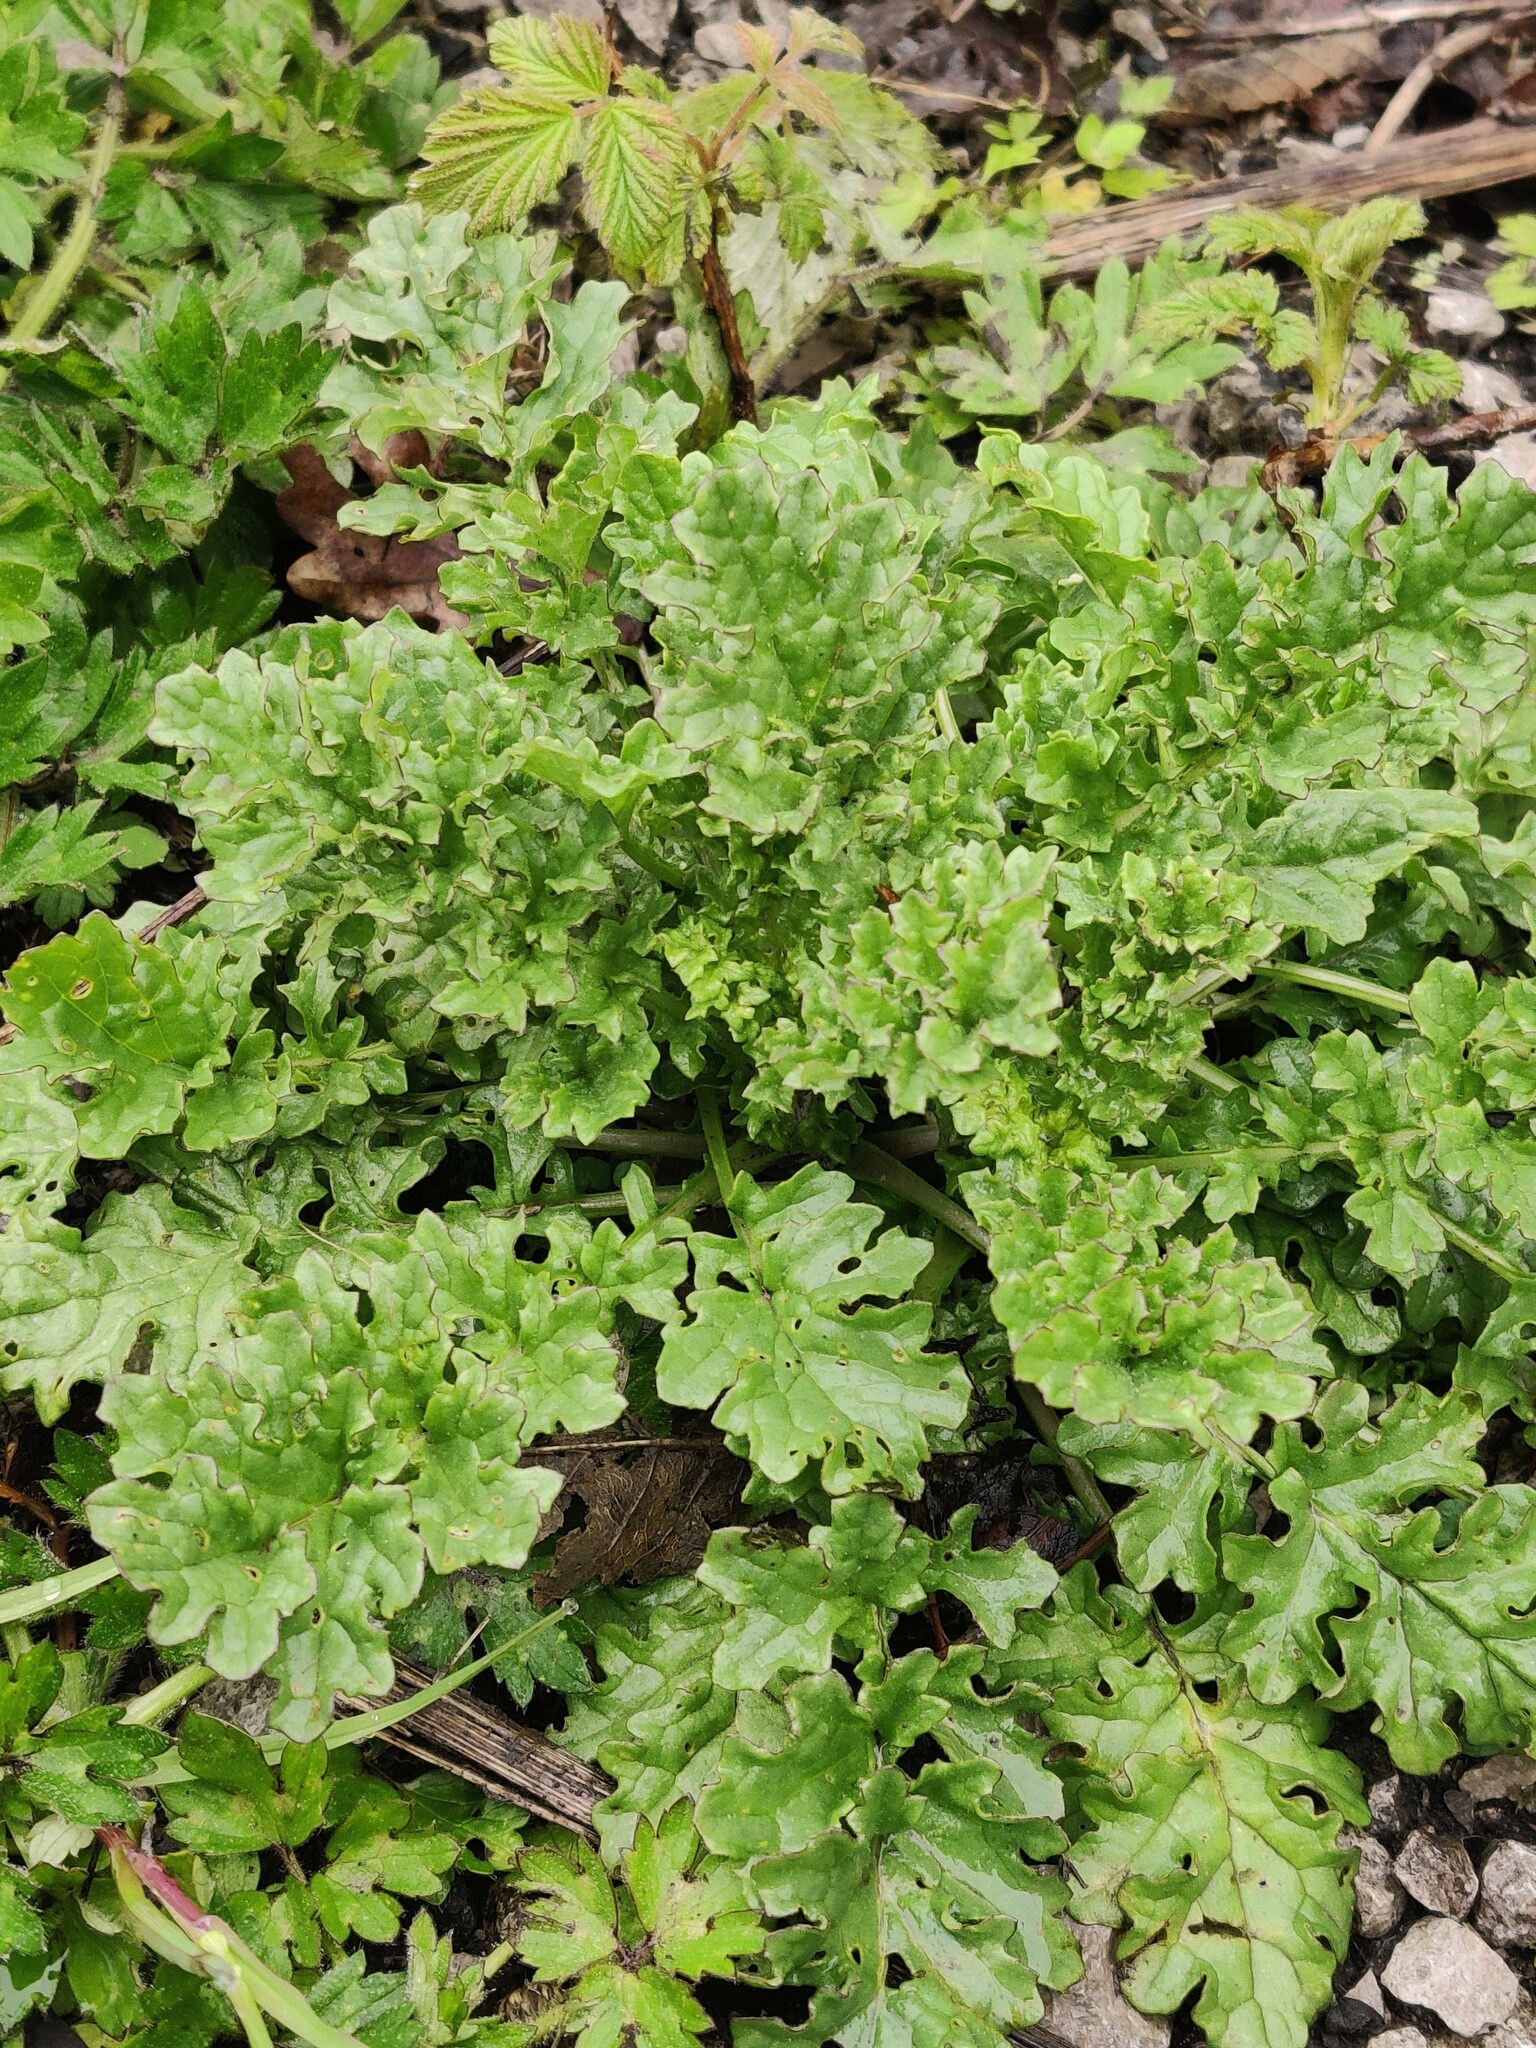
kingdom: Plantae
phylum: Tracheophyta
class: Magnoliopsida
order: Asterales
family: Asteraceae
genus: Jacobaea
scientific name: Jacobaea vulgaris
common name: Stinking willie
